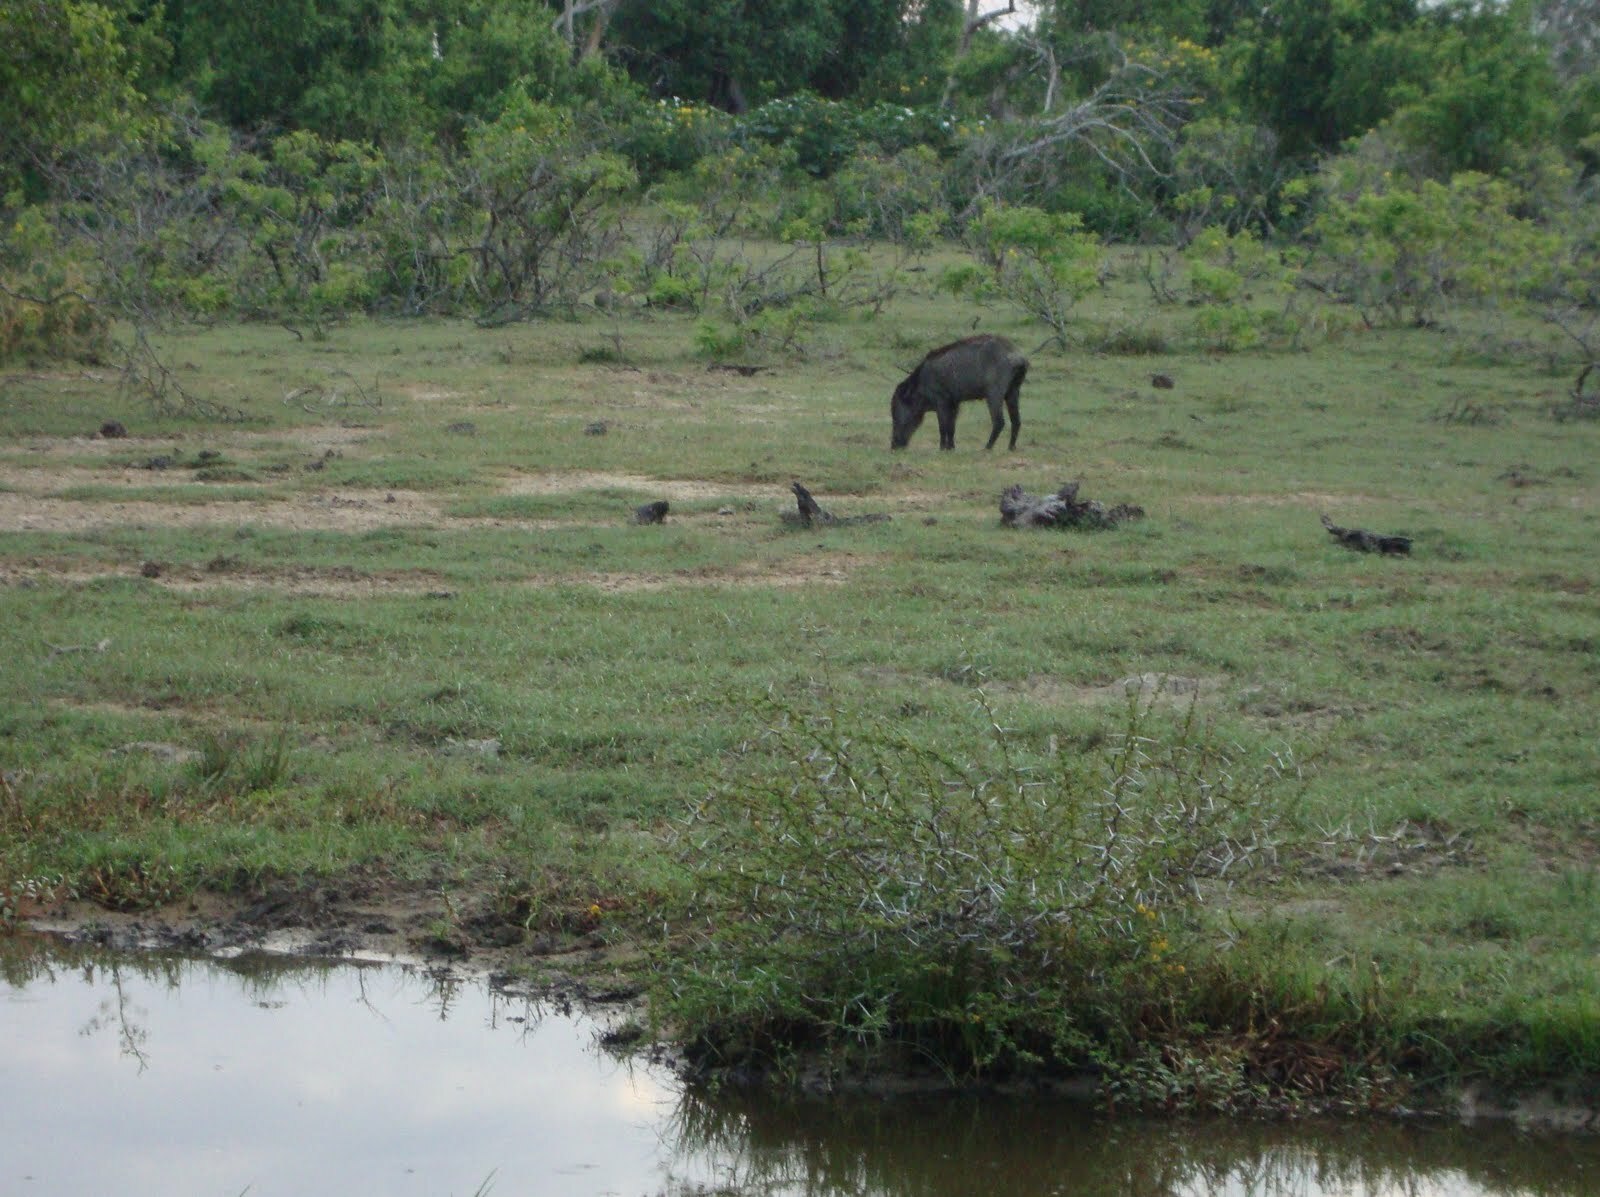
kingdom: Animalia
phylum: Chordata
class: Mammalia
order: Artiodactyla
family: Suidae
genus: Sus
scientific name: Sus scrofa
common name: Wild boar
